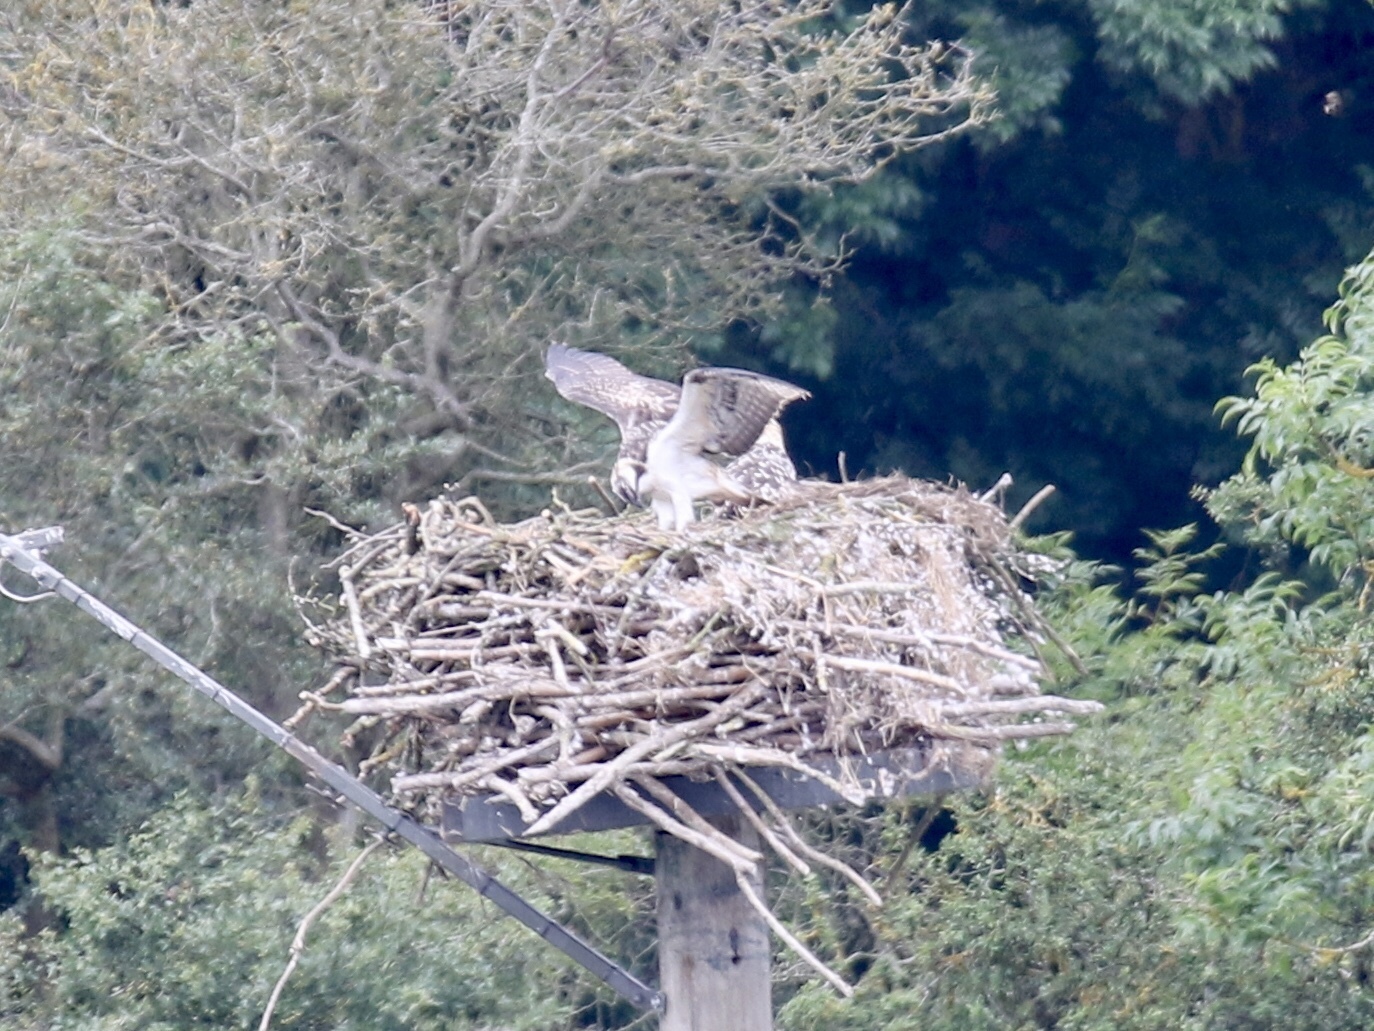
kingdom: Animalia
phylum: Chordata
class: Aves
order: Accipitriformes
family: Pandionidae
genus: Pandion
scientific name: Pandion haliaetus
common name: Osprey
